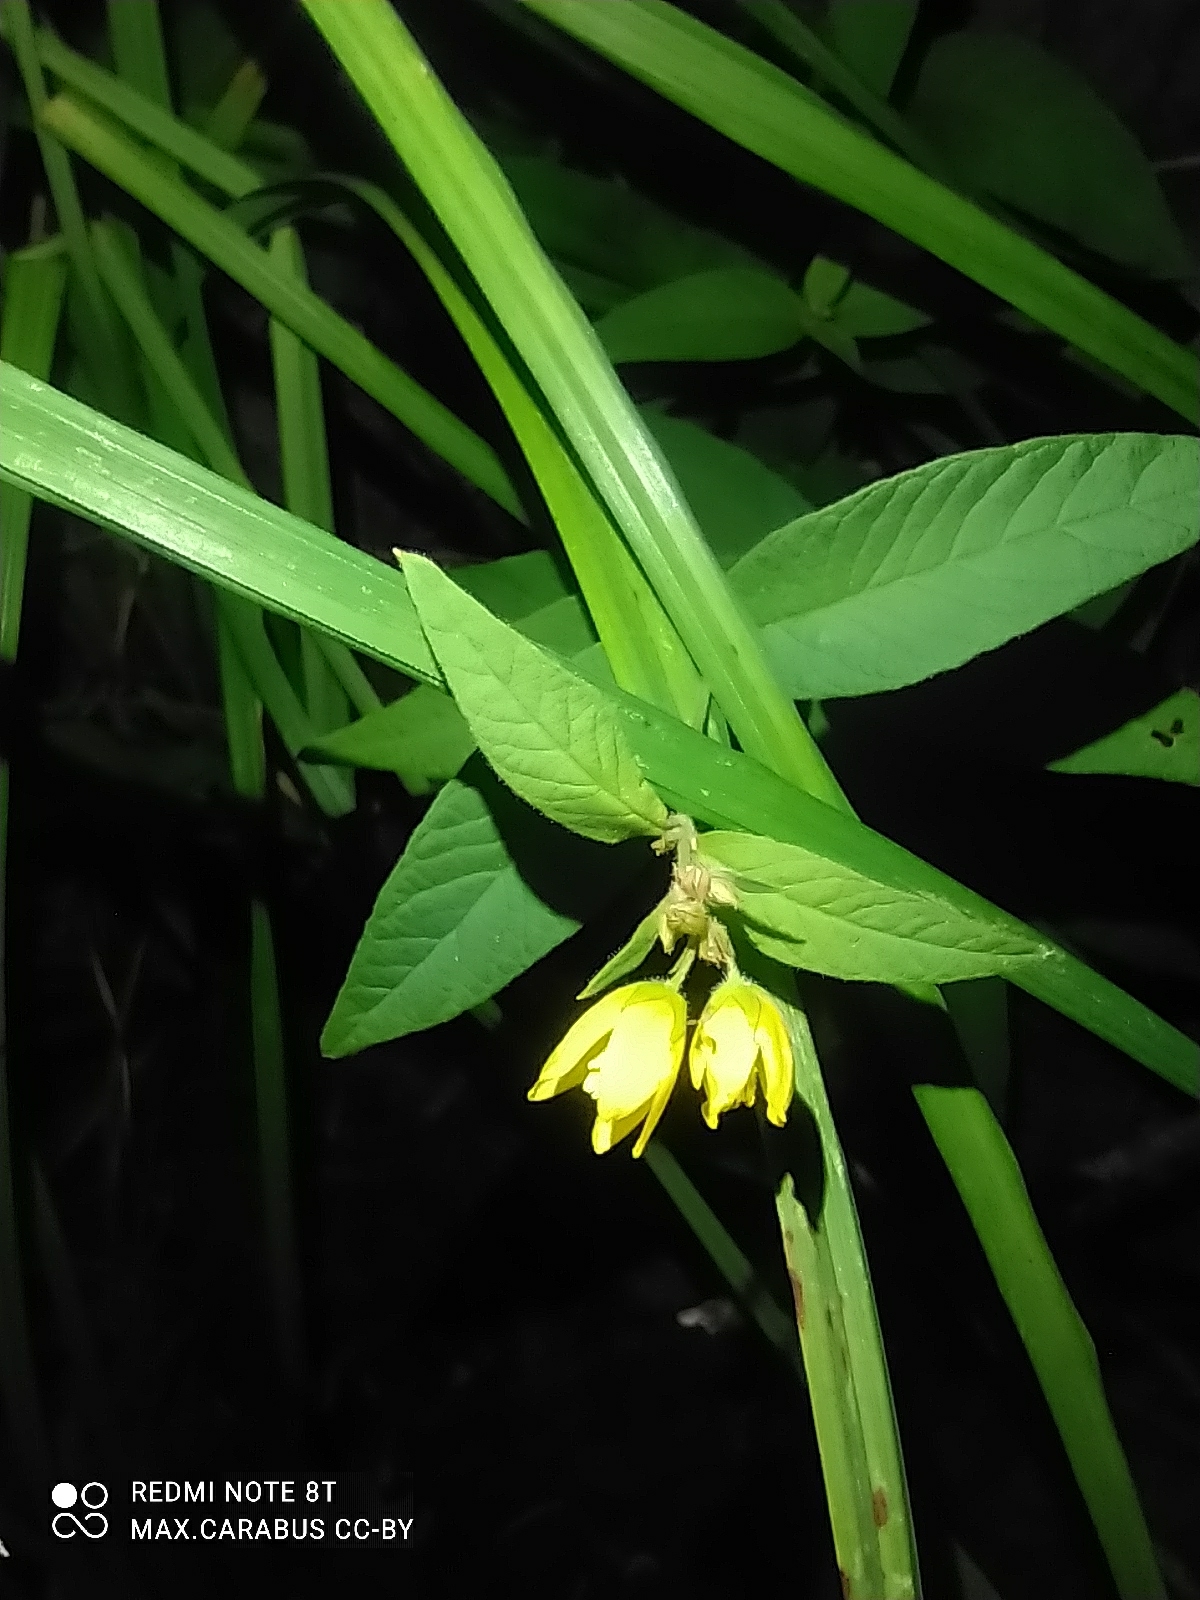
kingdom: Plantae
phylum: Tracheophyta
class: Magnoliopsida
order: Ericales
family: Primulaceae
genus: Lysimachia
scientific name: Lysimachia vulgaris
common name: Yellow loosestrife
